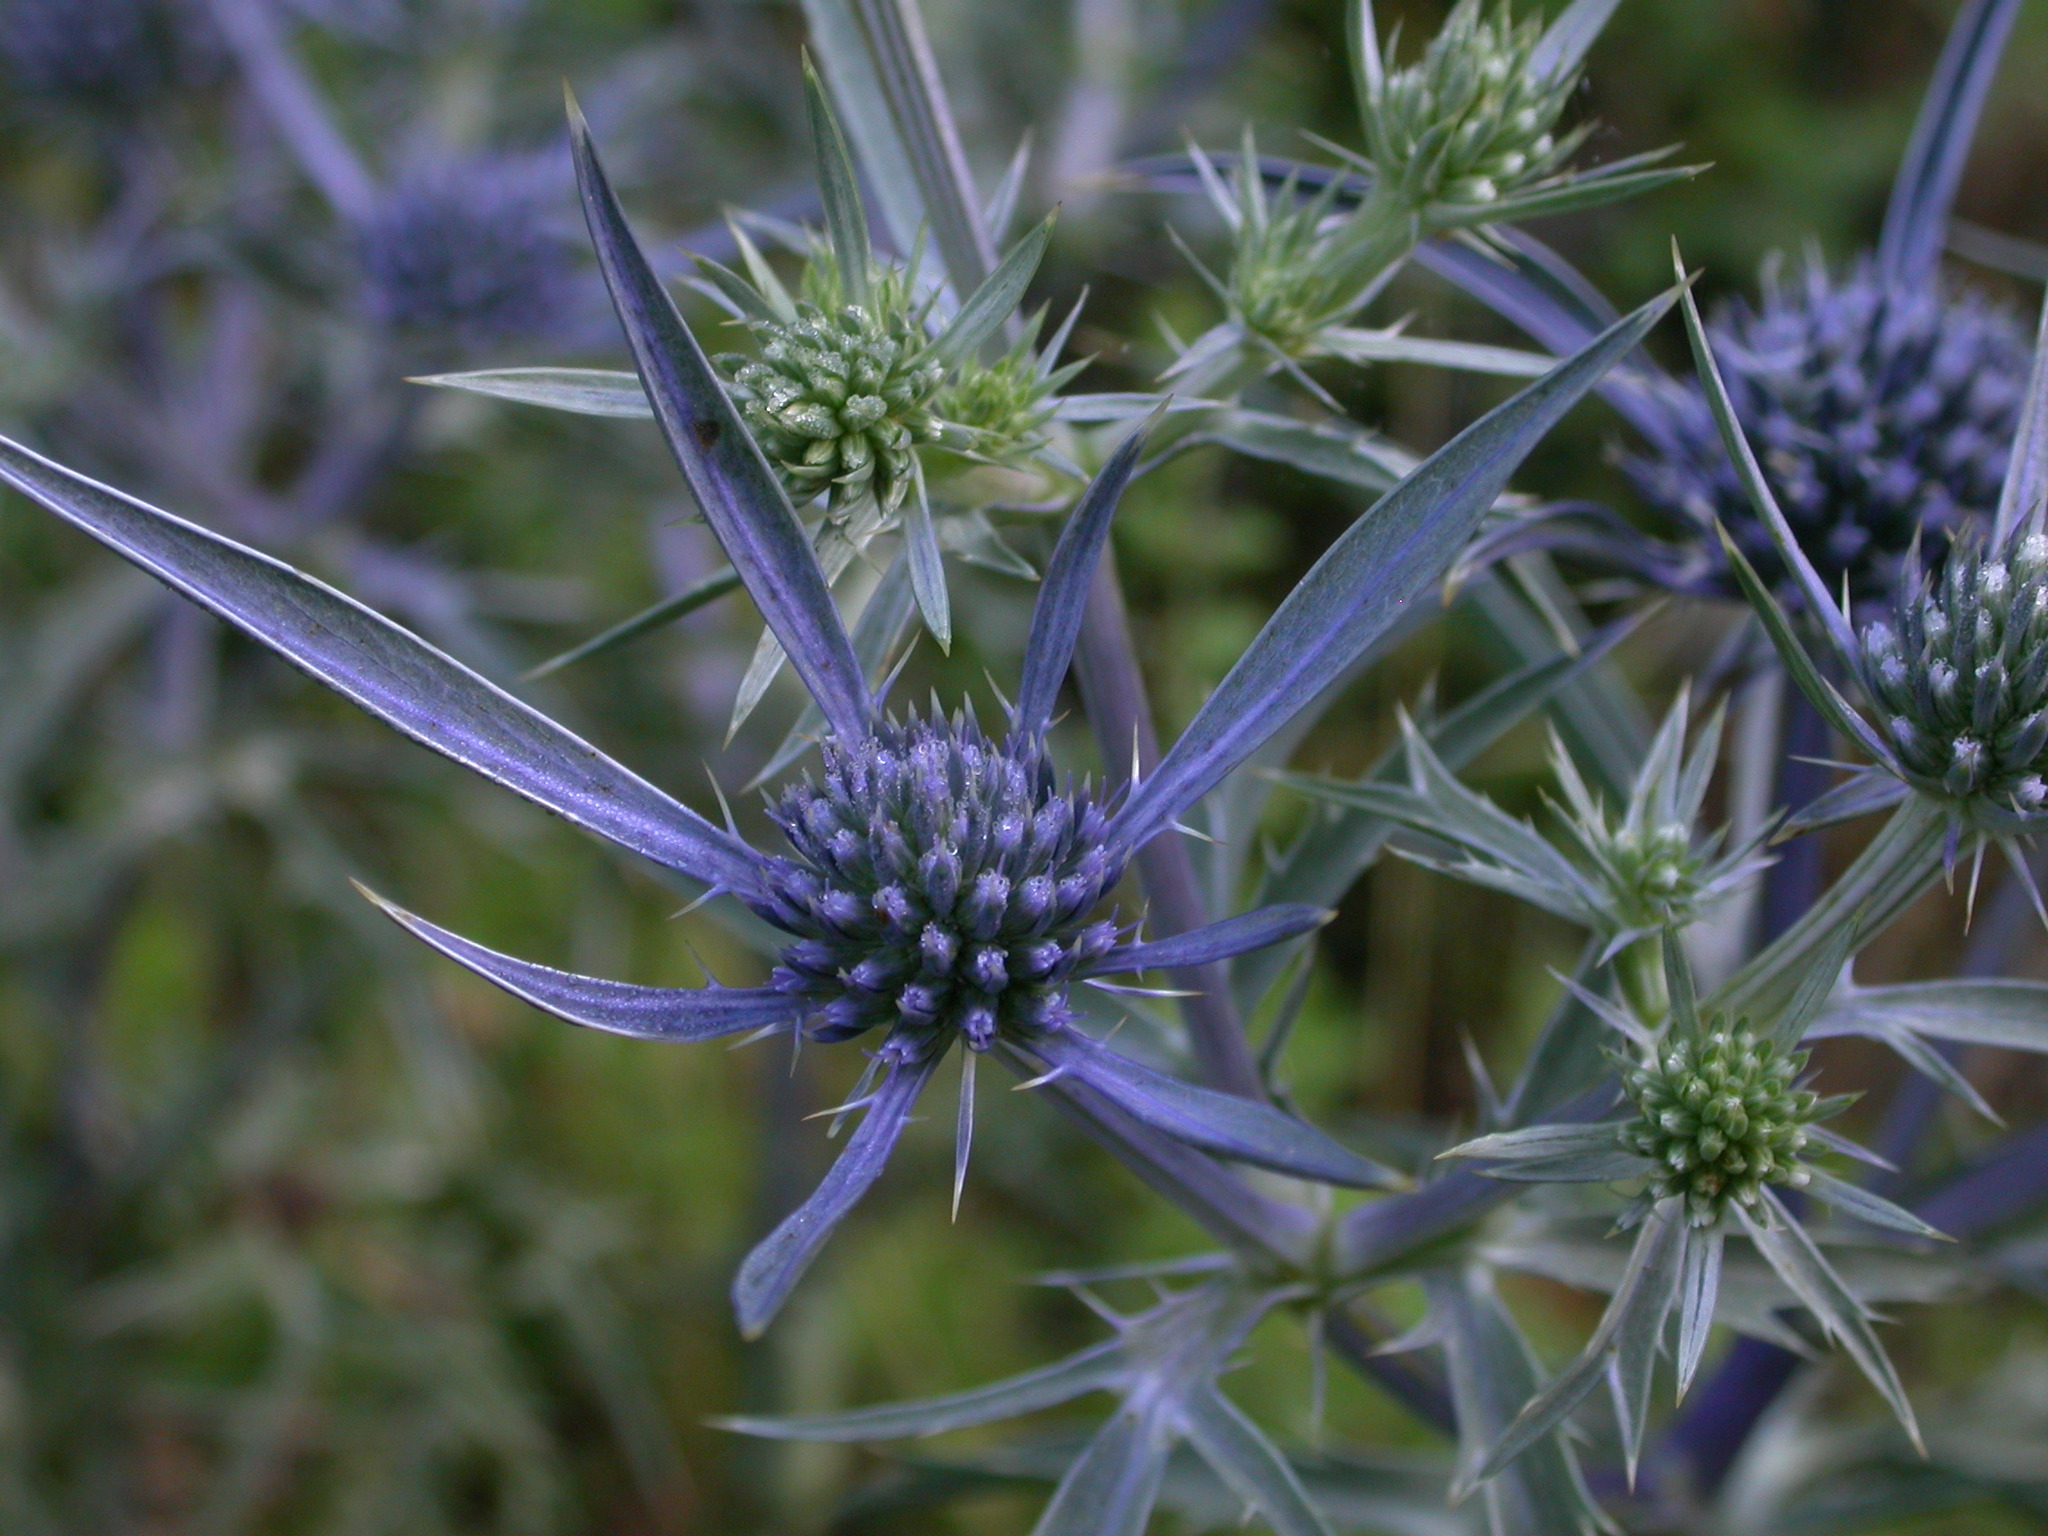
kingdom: Plantae
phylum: Tracheophyta
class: Magnoliopsida
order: Apiales
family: Apiaceae
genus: Eryngium
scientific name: Eryngium amethystinum
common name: Amethyst eryngo
